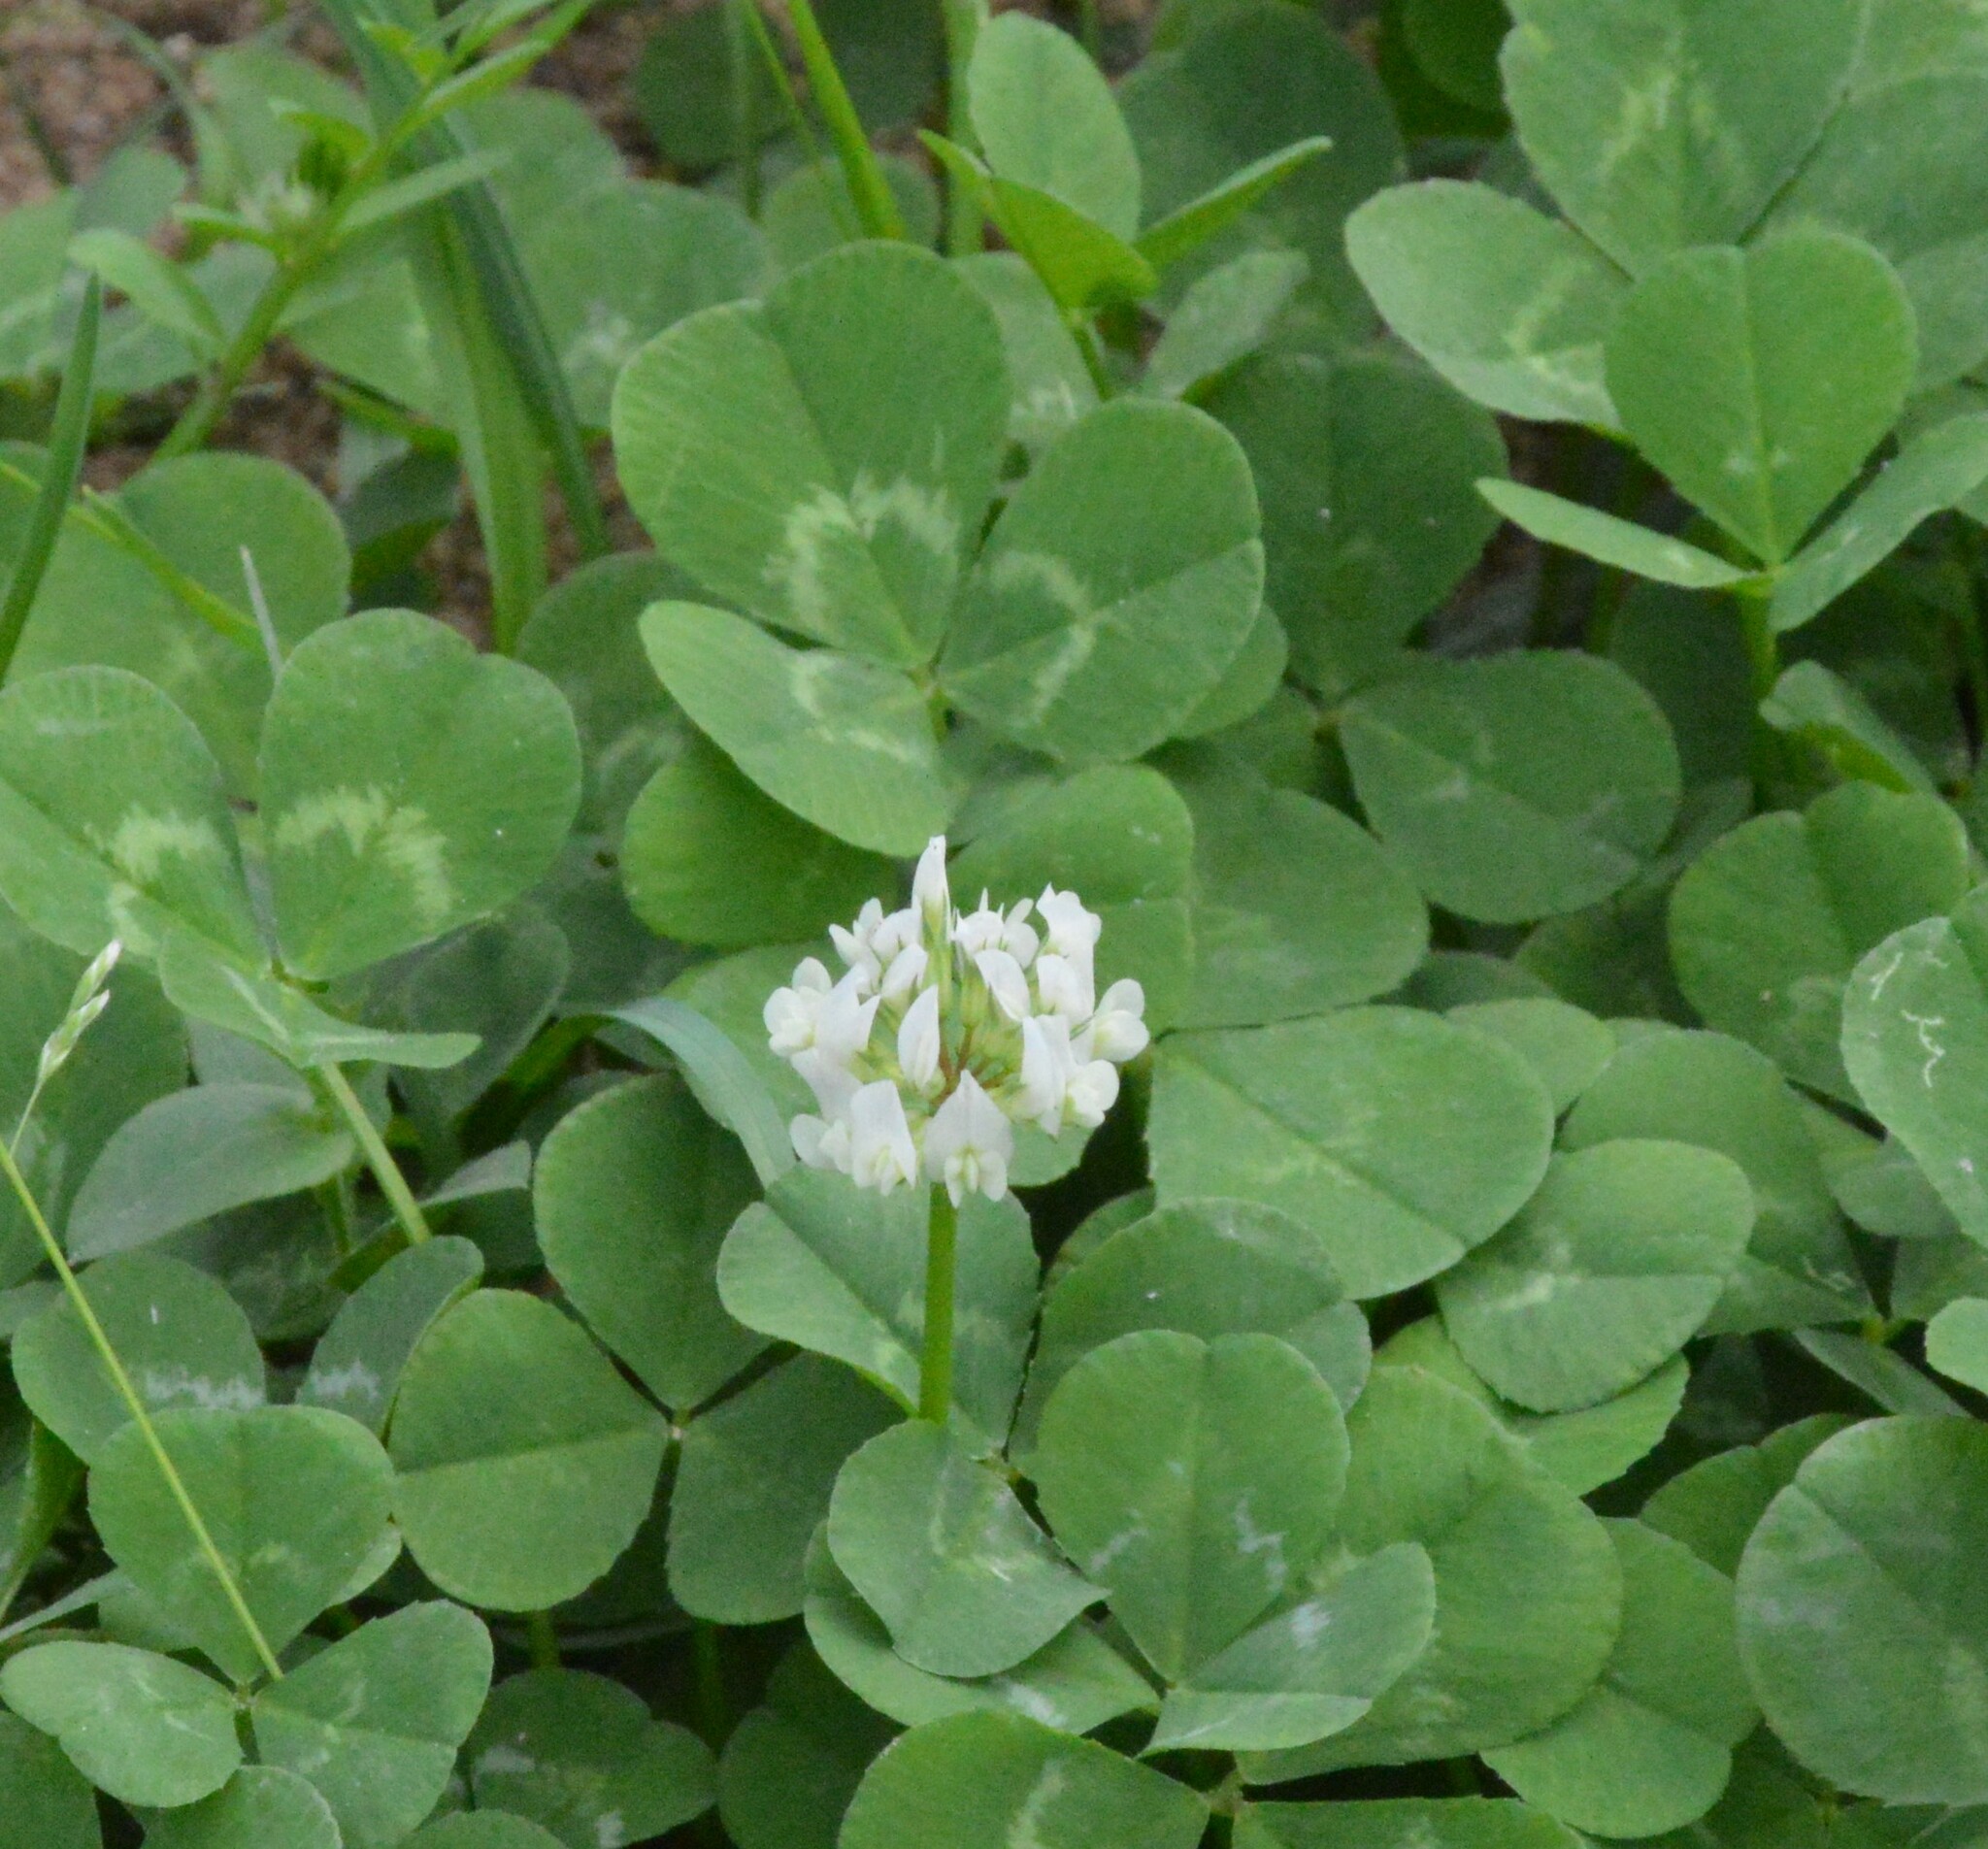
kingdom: Plantae
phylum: Tracheophyta
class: Magnoliopsida
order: Fabales
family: Fabaceae
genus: Trifolium
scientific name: Trifolium repens
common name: White clover
